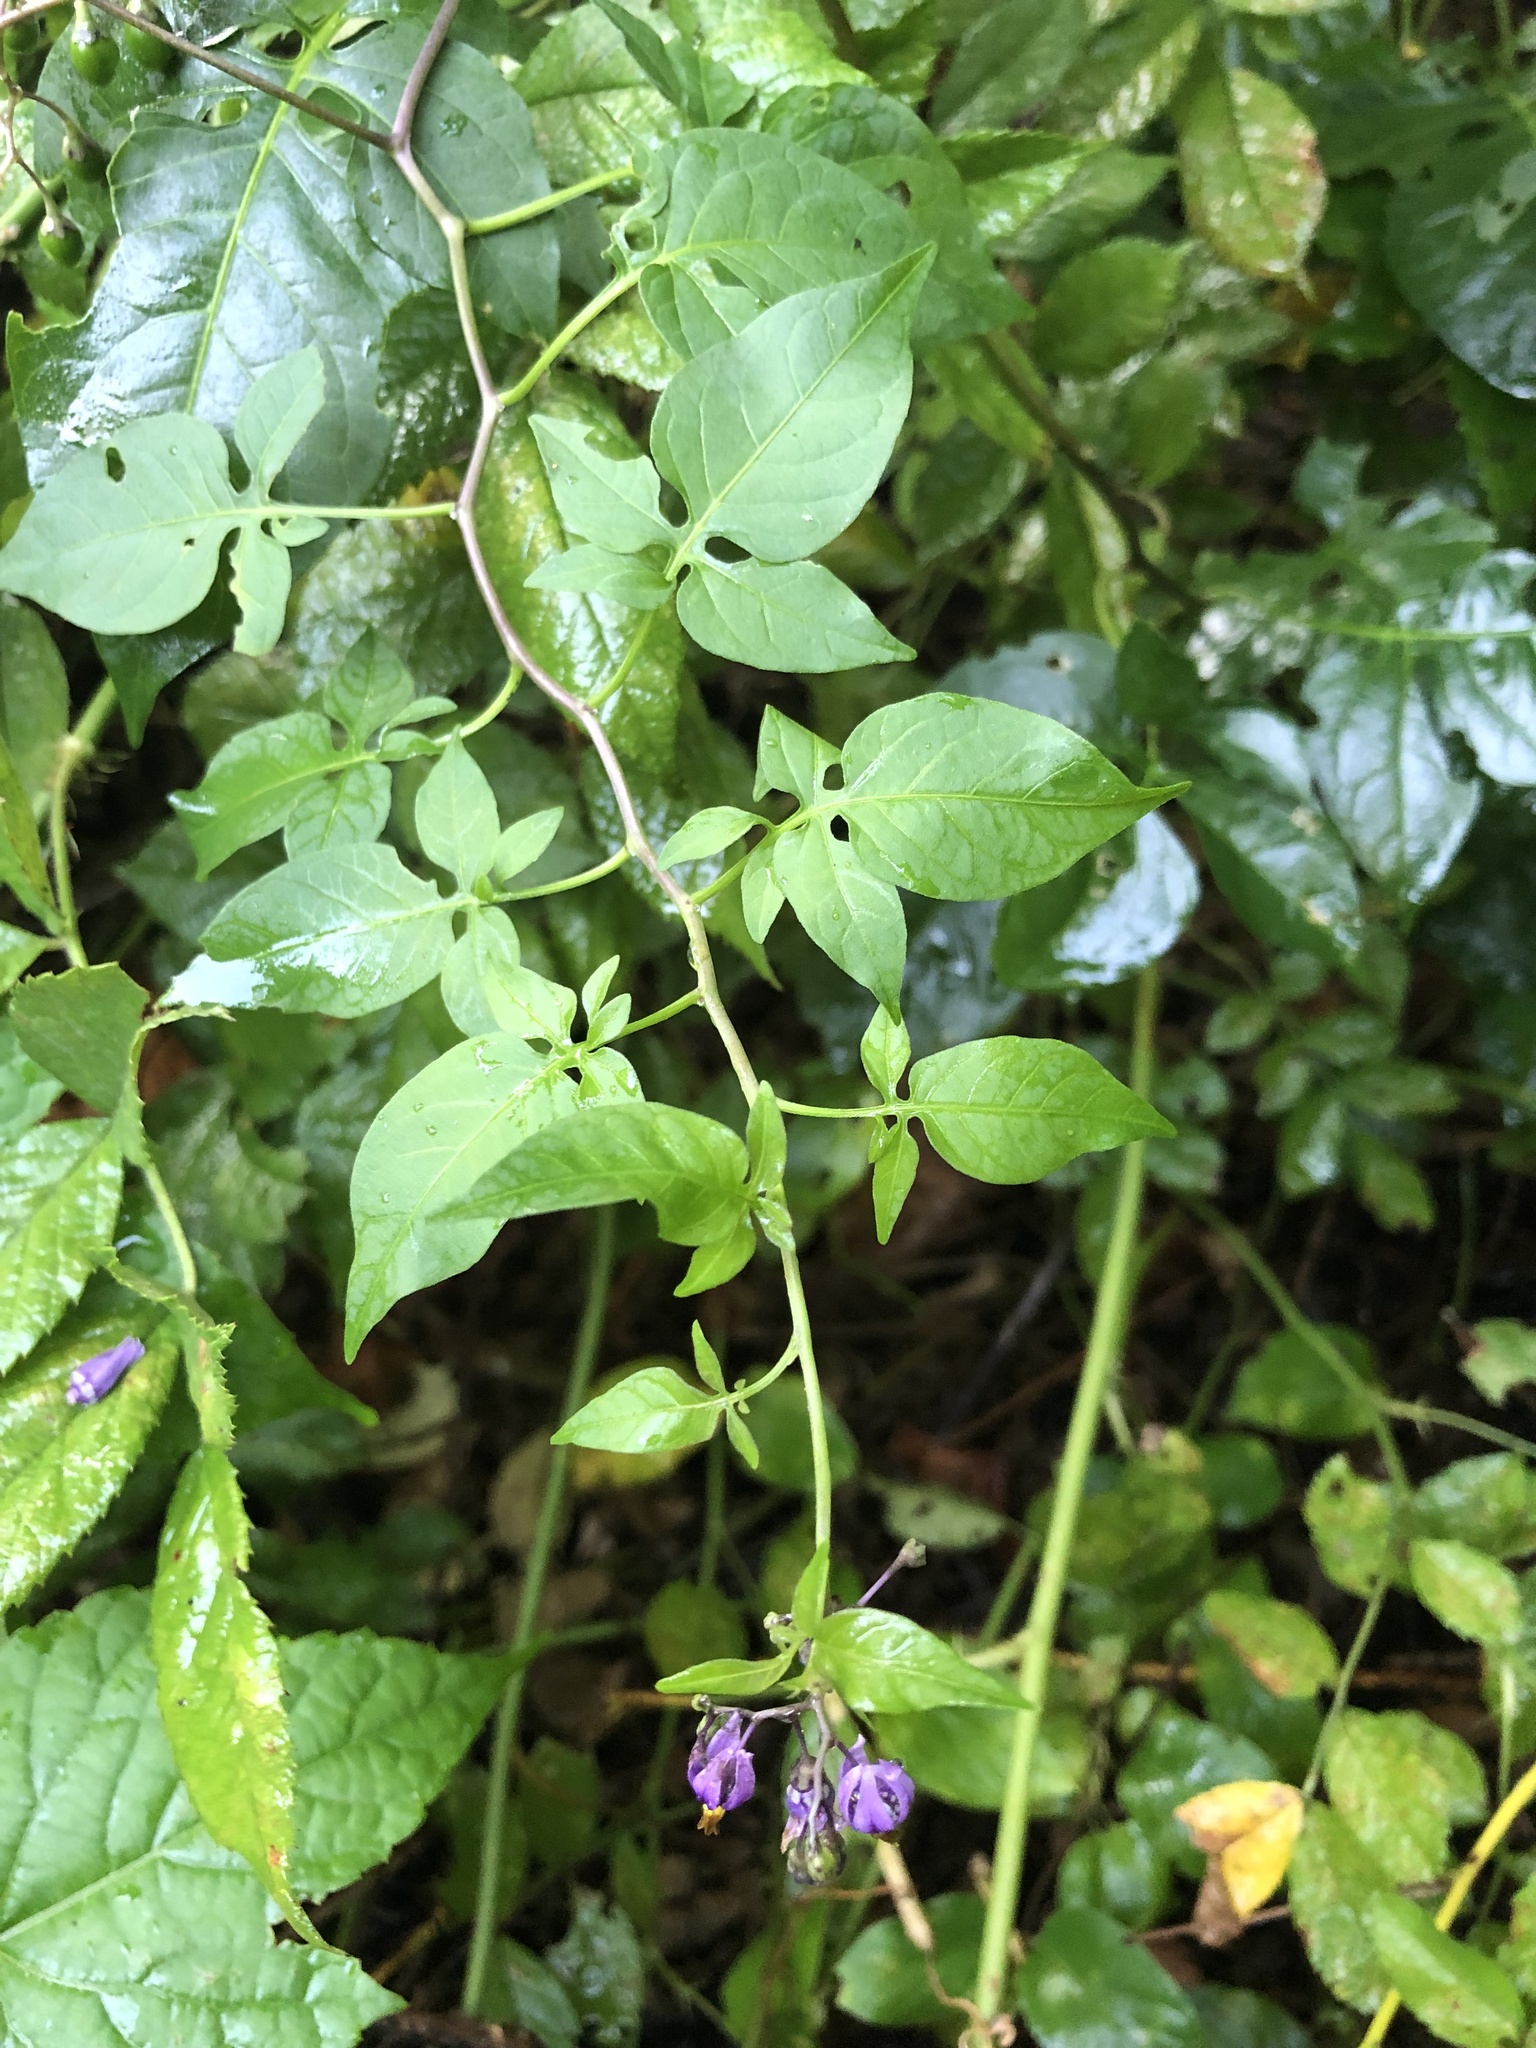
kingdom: Plantae
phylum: Tracheophyta
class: Magnoliopsida
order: Solanales
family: Solanaceae
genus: Solanum
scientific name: Solanum dulcamara
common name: Climbing nightshade
